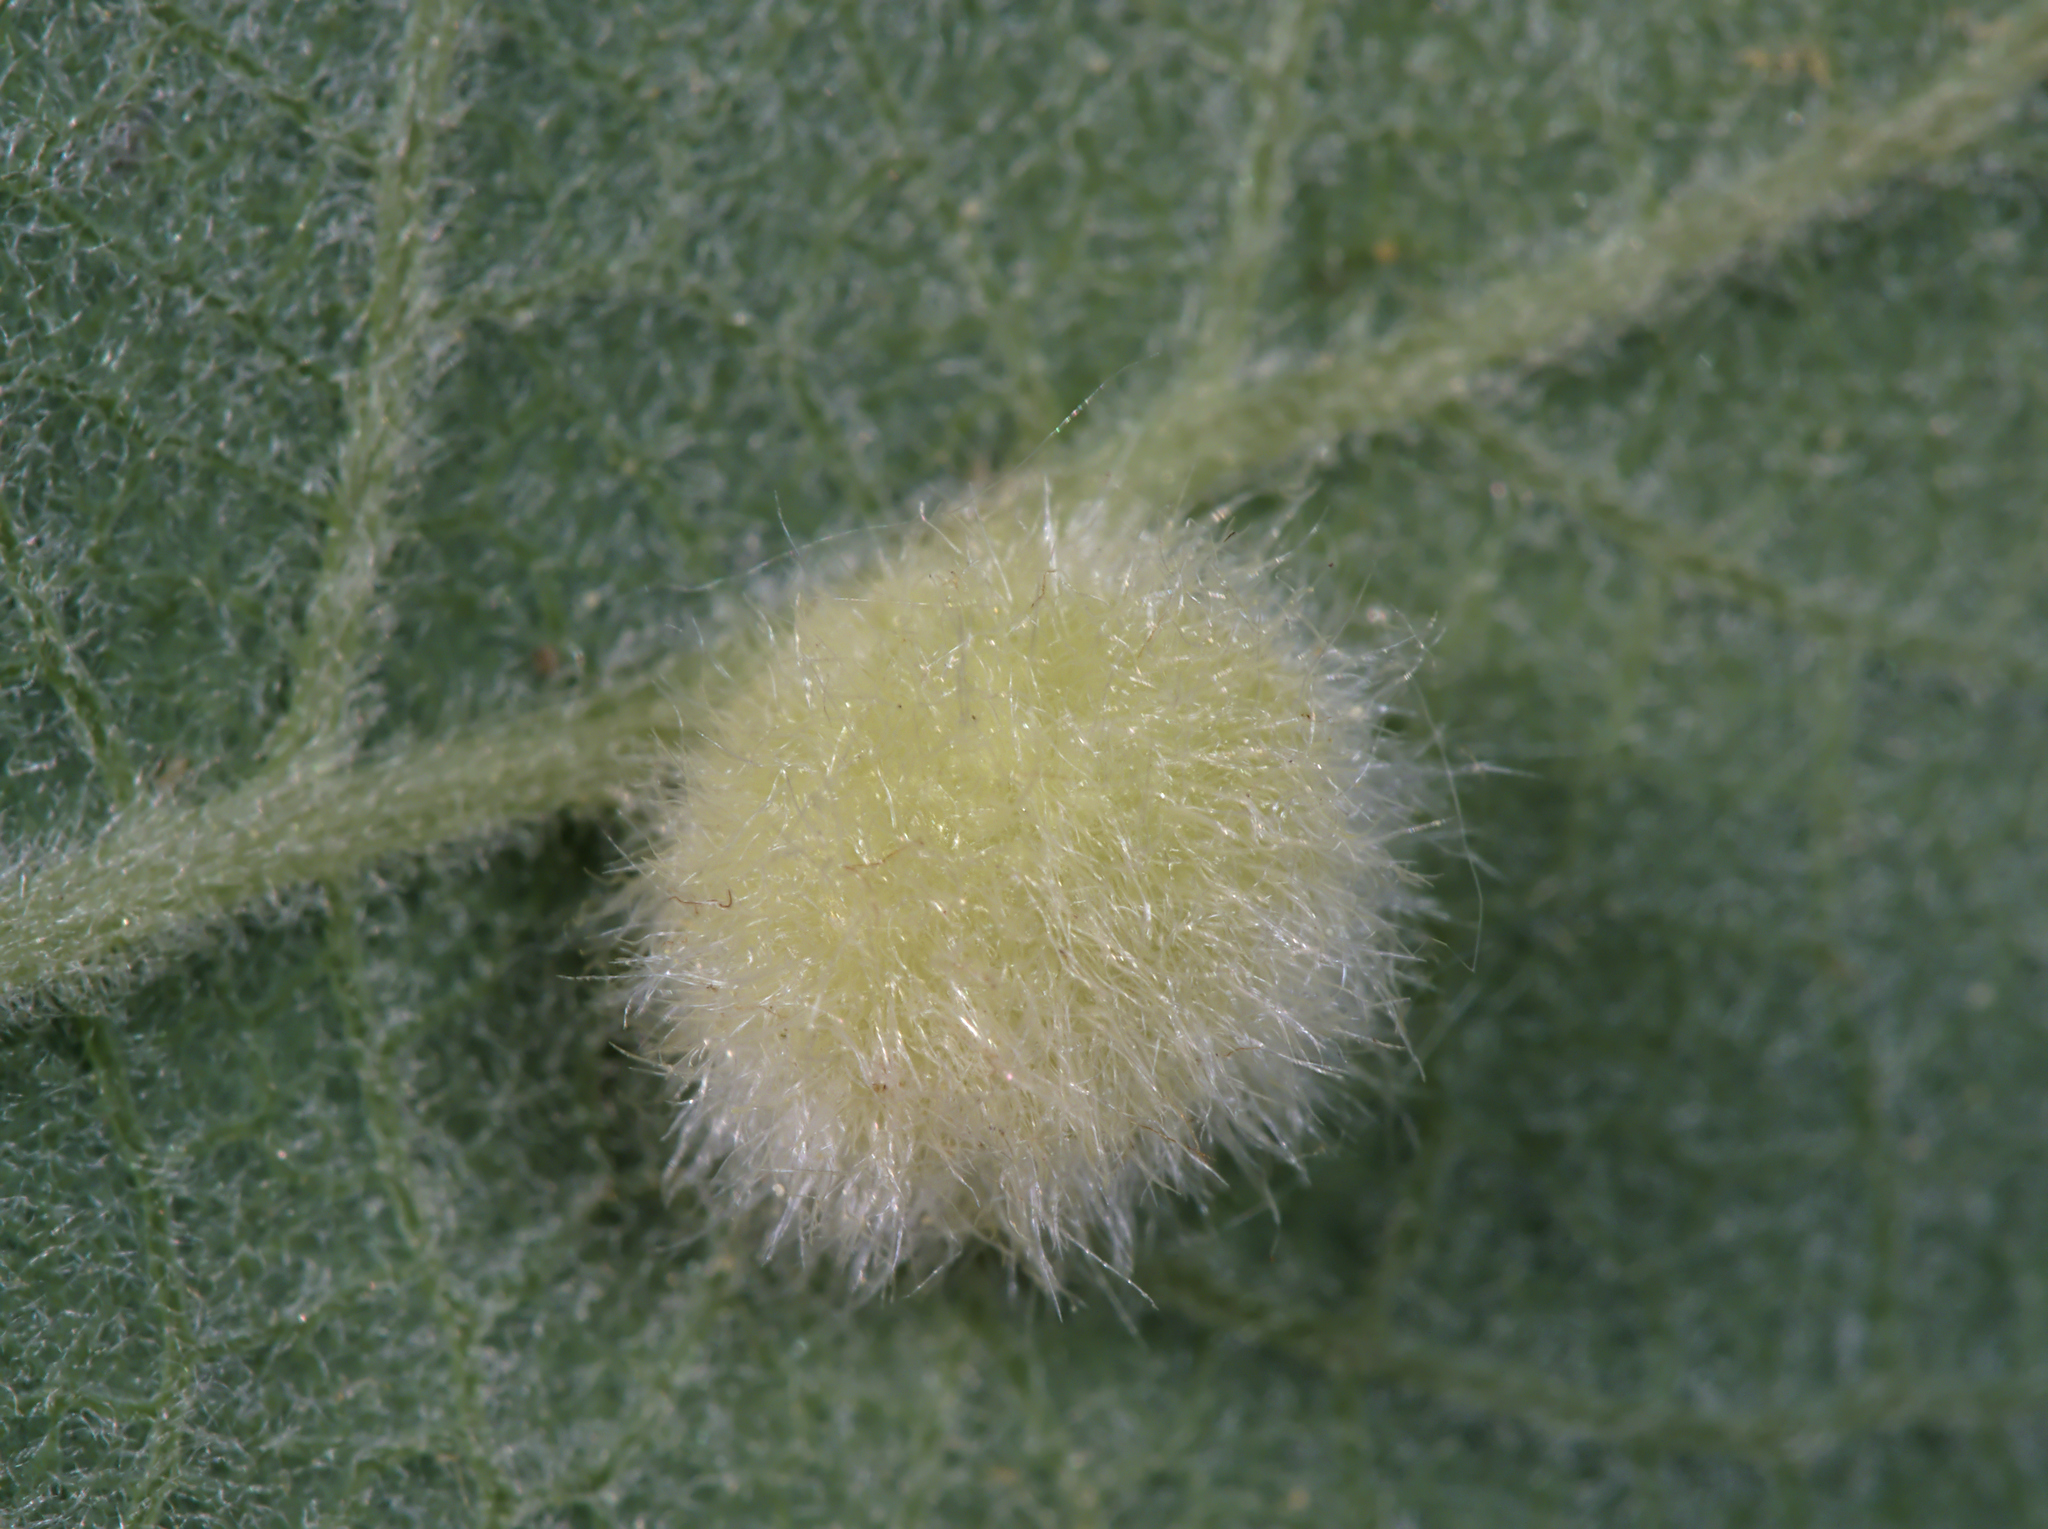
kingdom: Animalia
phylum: Arthropoda
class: Insecta
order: Hymenoptera
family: Tenthredinidae
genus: Pontania
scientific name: Pontania pedunculi
